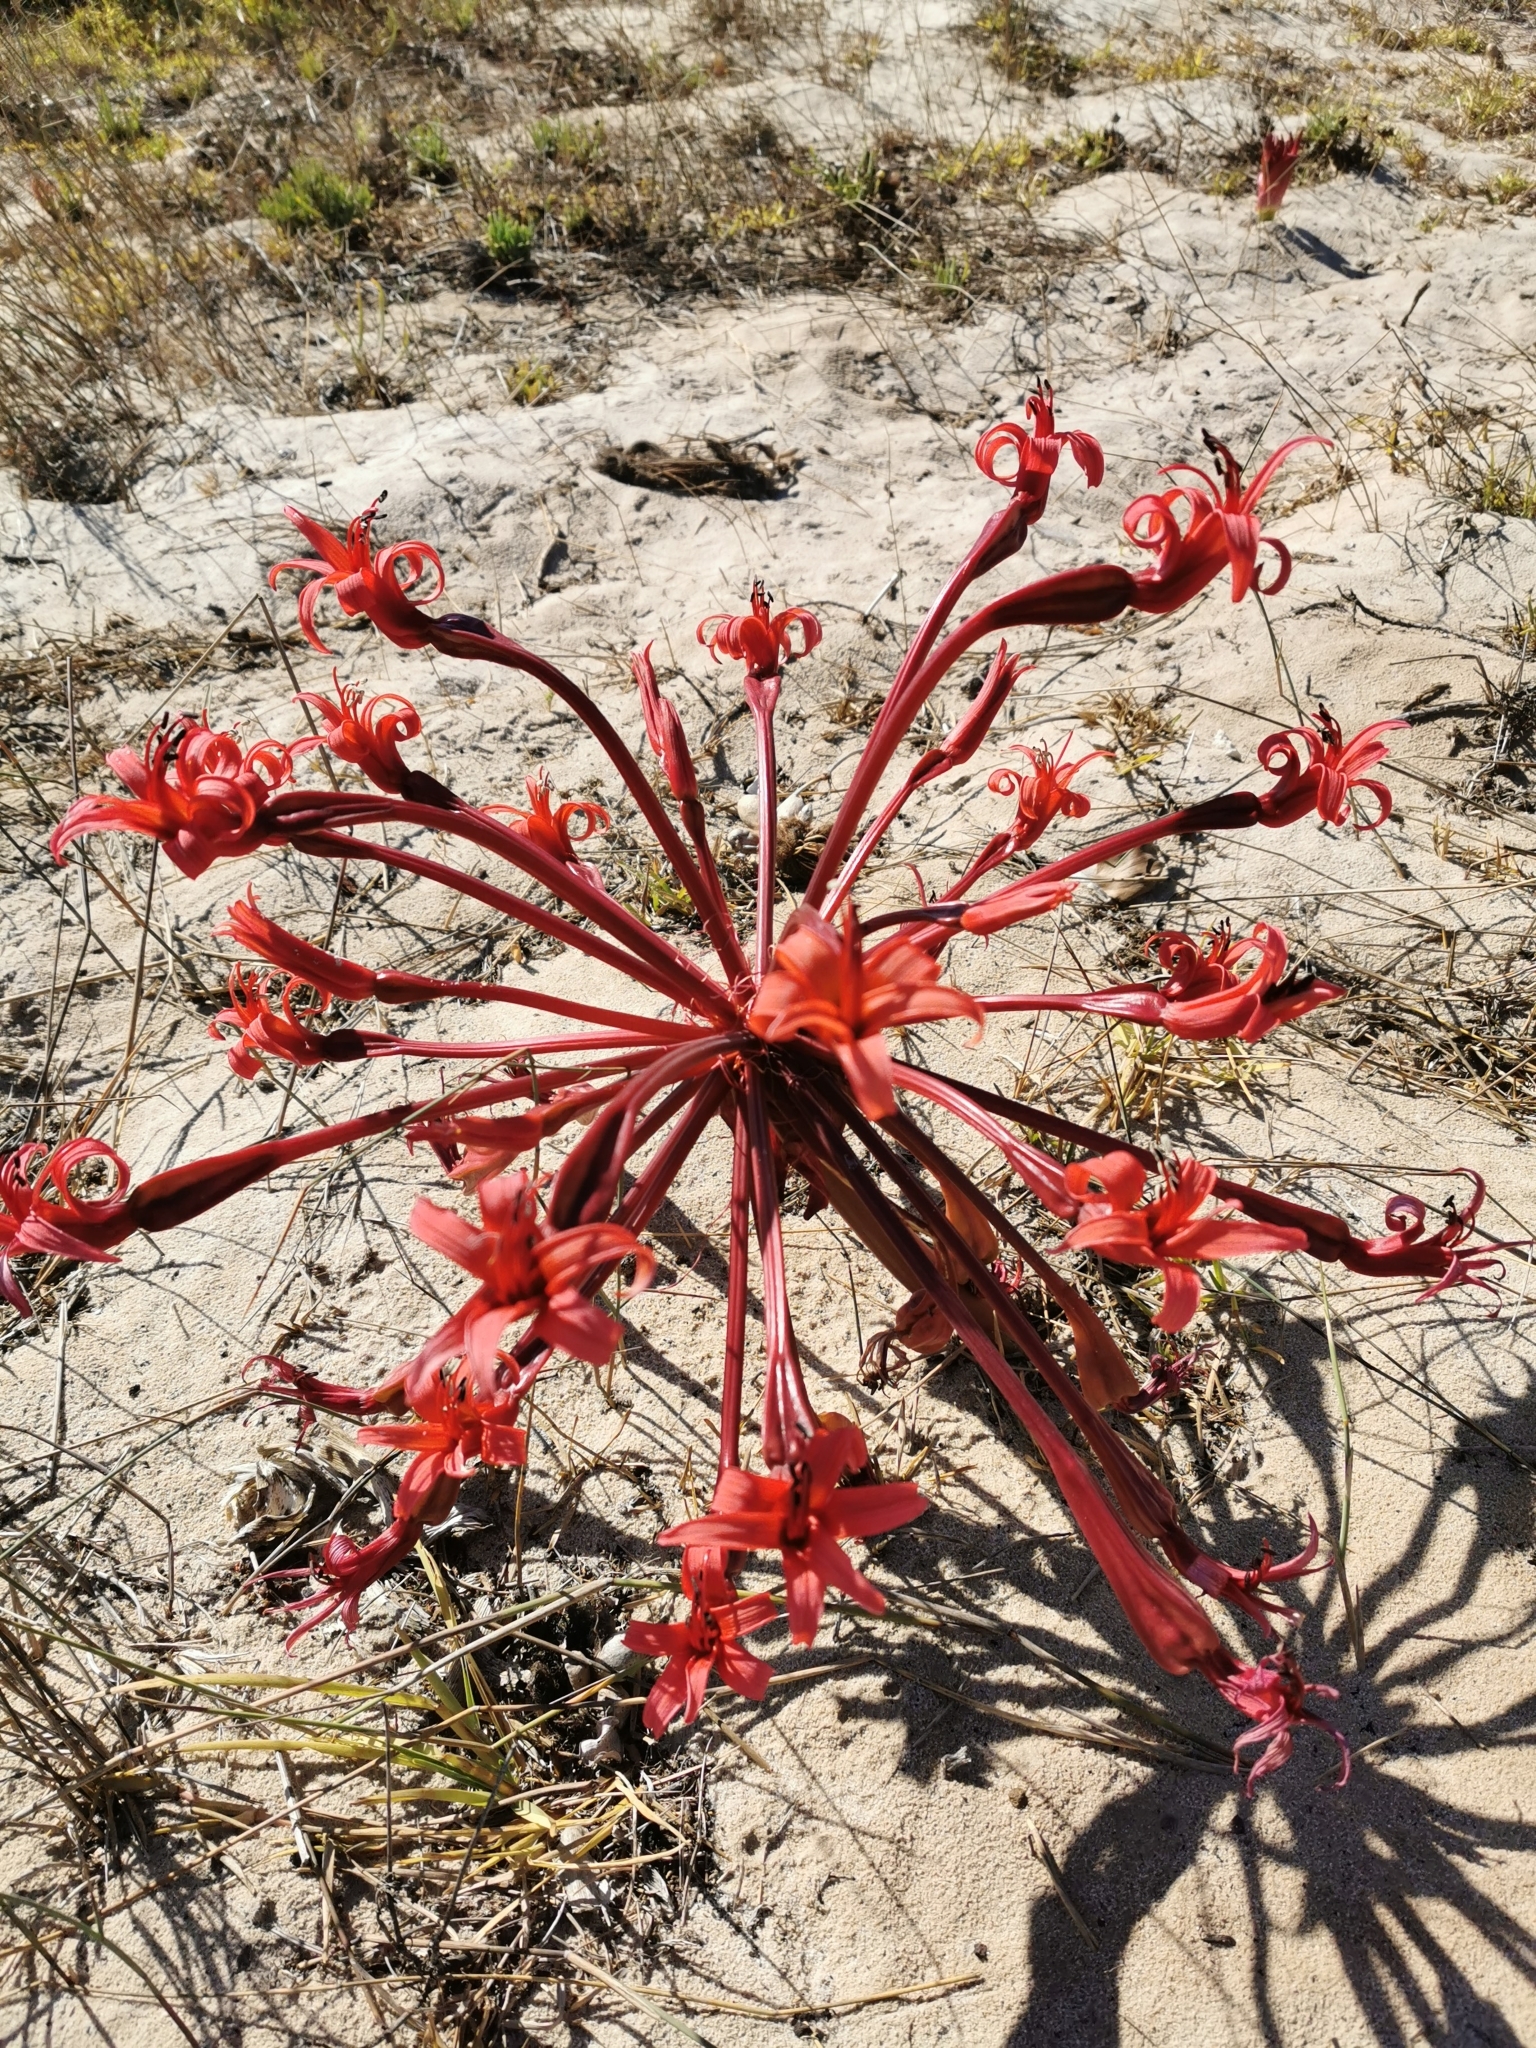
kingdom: Plantae
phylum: Tracheophyta
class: Liliopsida
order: Asparagales
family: Amaryllidaceae
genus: Brunsvigia
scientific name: Brunsvigia orientalis
